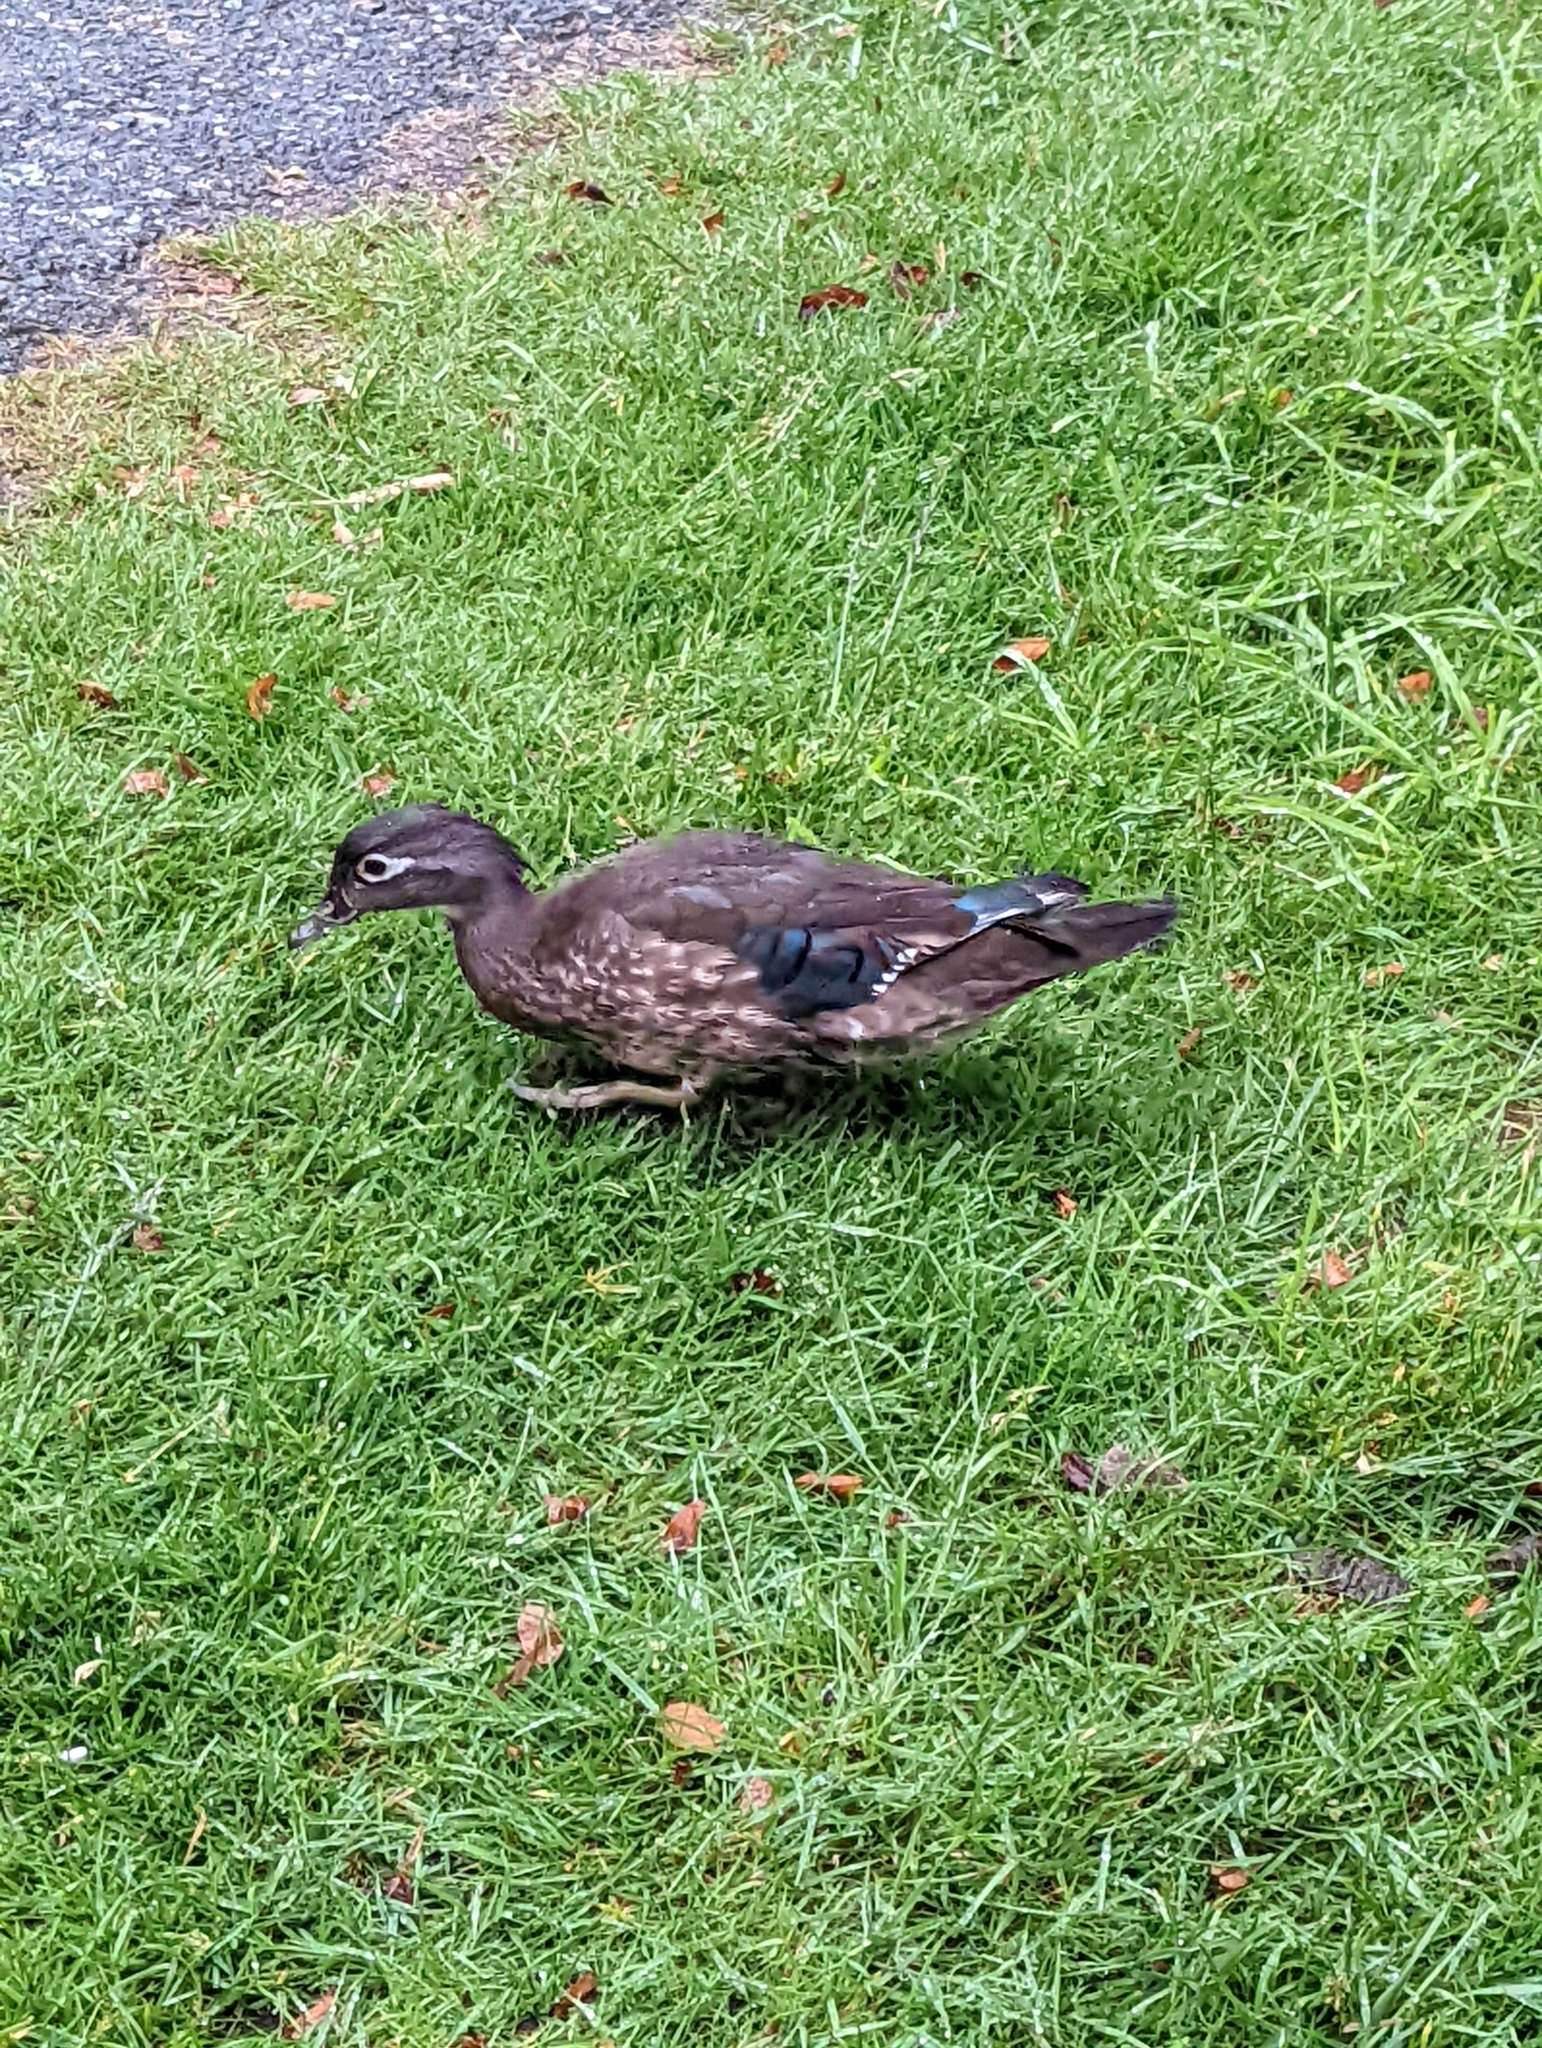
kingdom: Animalia
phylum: Chordata
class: Aves
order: Anseriformes
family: Anatidae
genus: Aix
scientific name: Aix sponsa
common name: Wood duck
